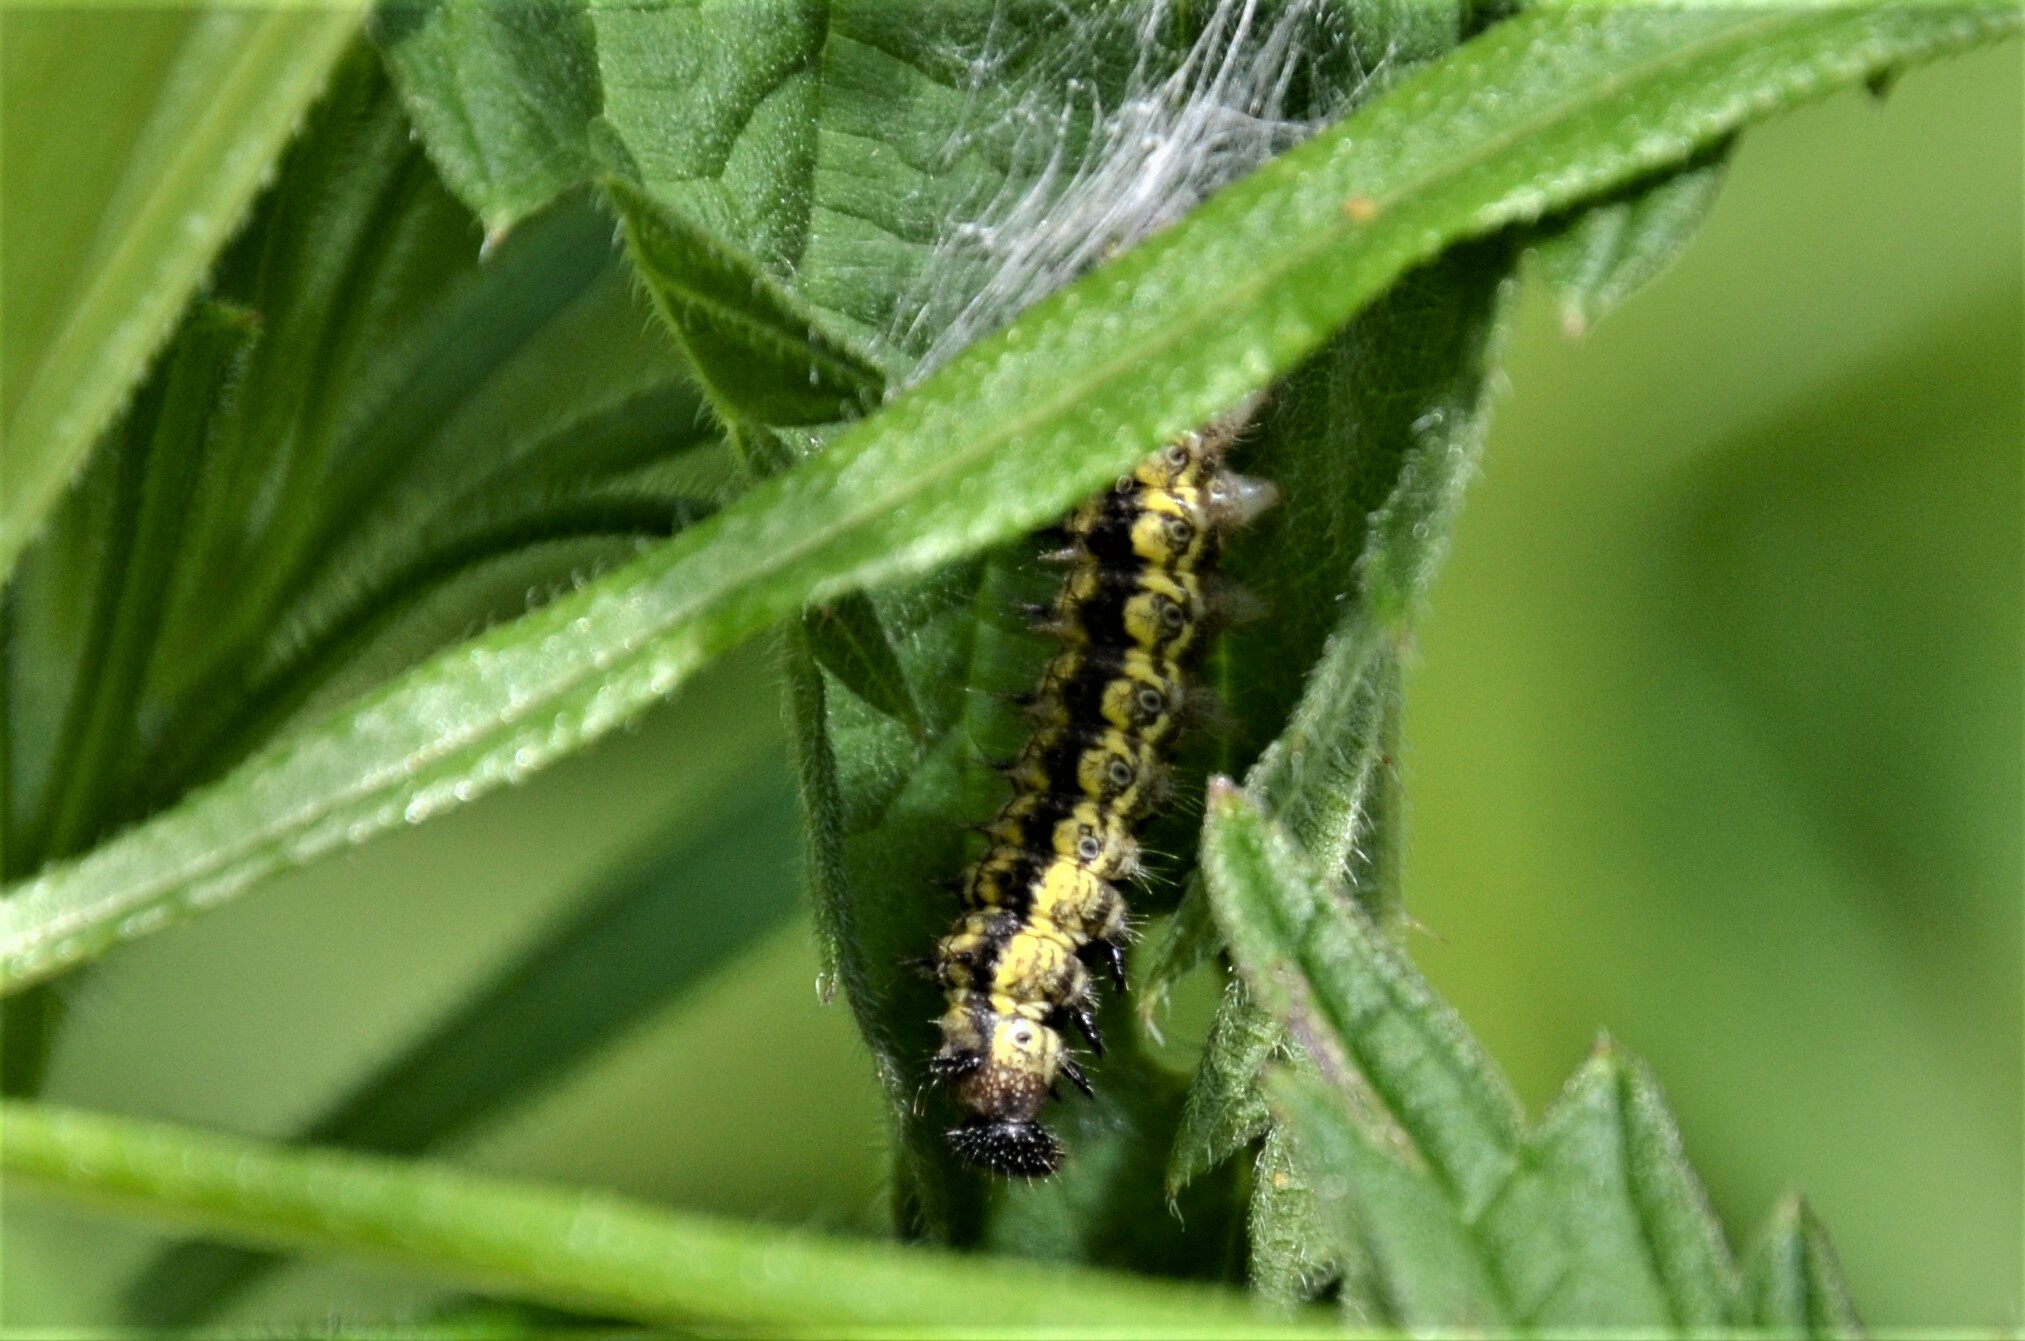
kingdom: Animalia
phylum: Arthropoda
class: Insecta
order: Lepidoptera
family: Nymphalidae
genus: Aglais
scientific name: Aglais urticae
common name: Small tortoiseshell
